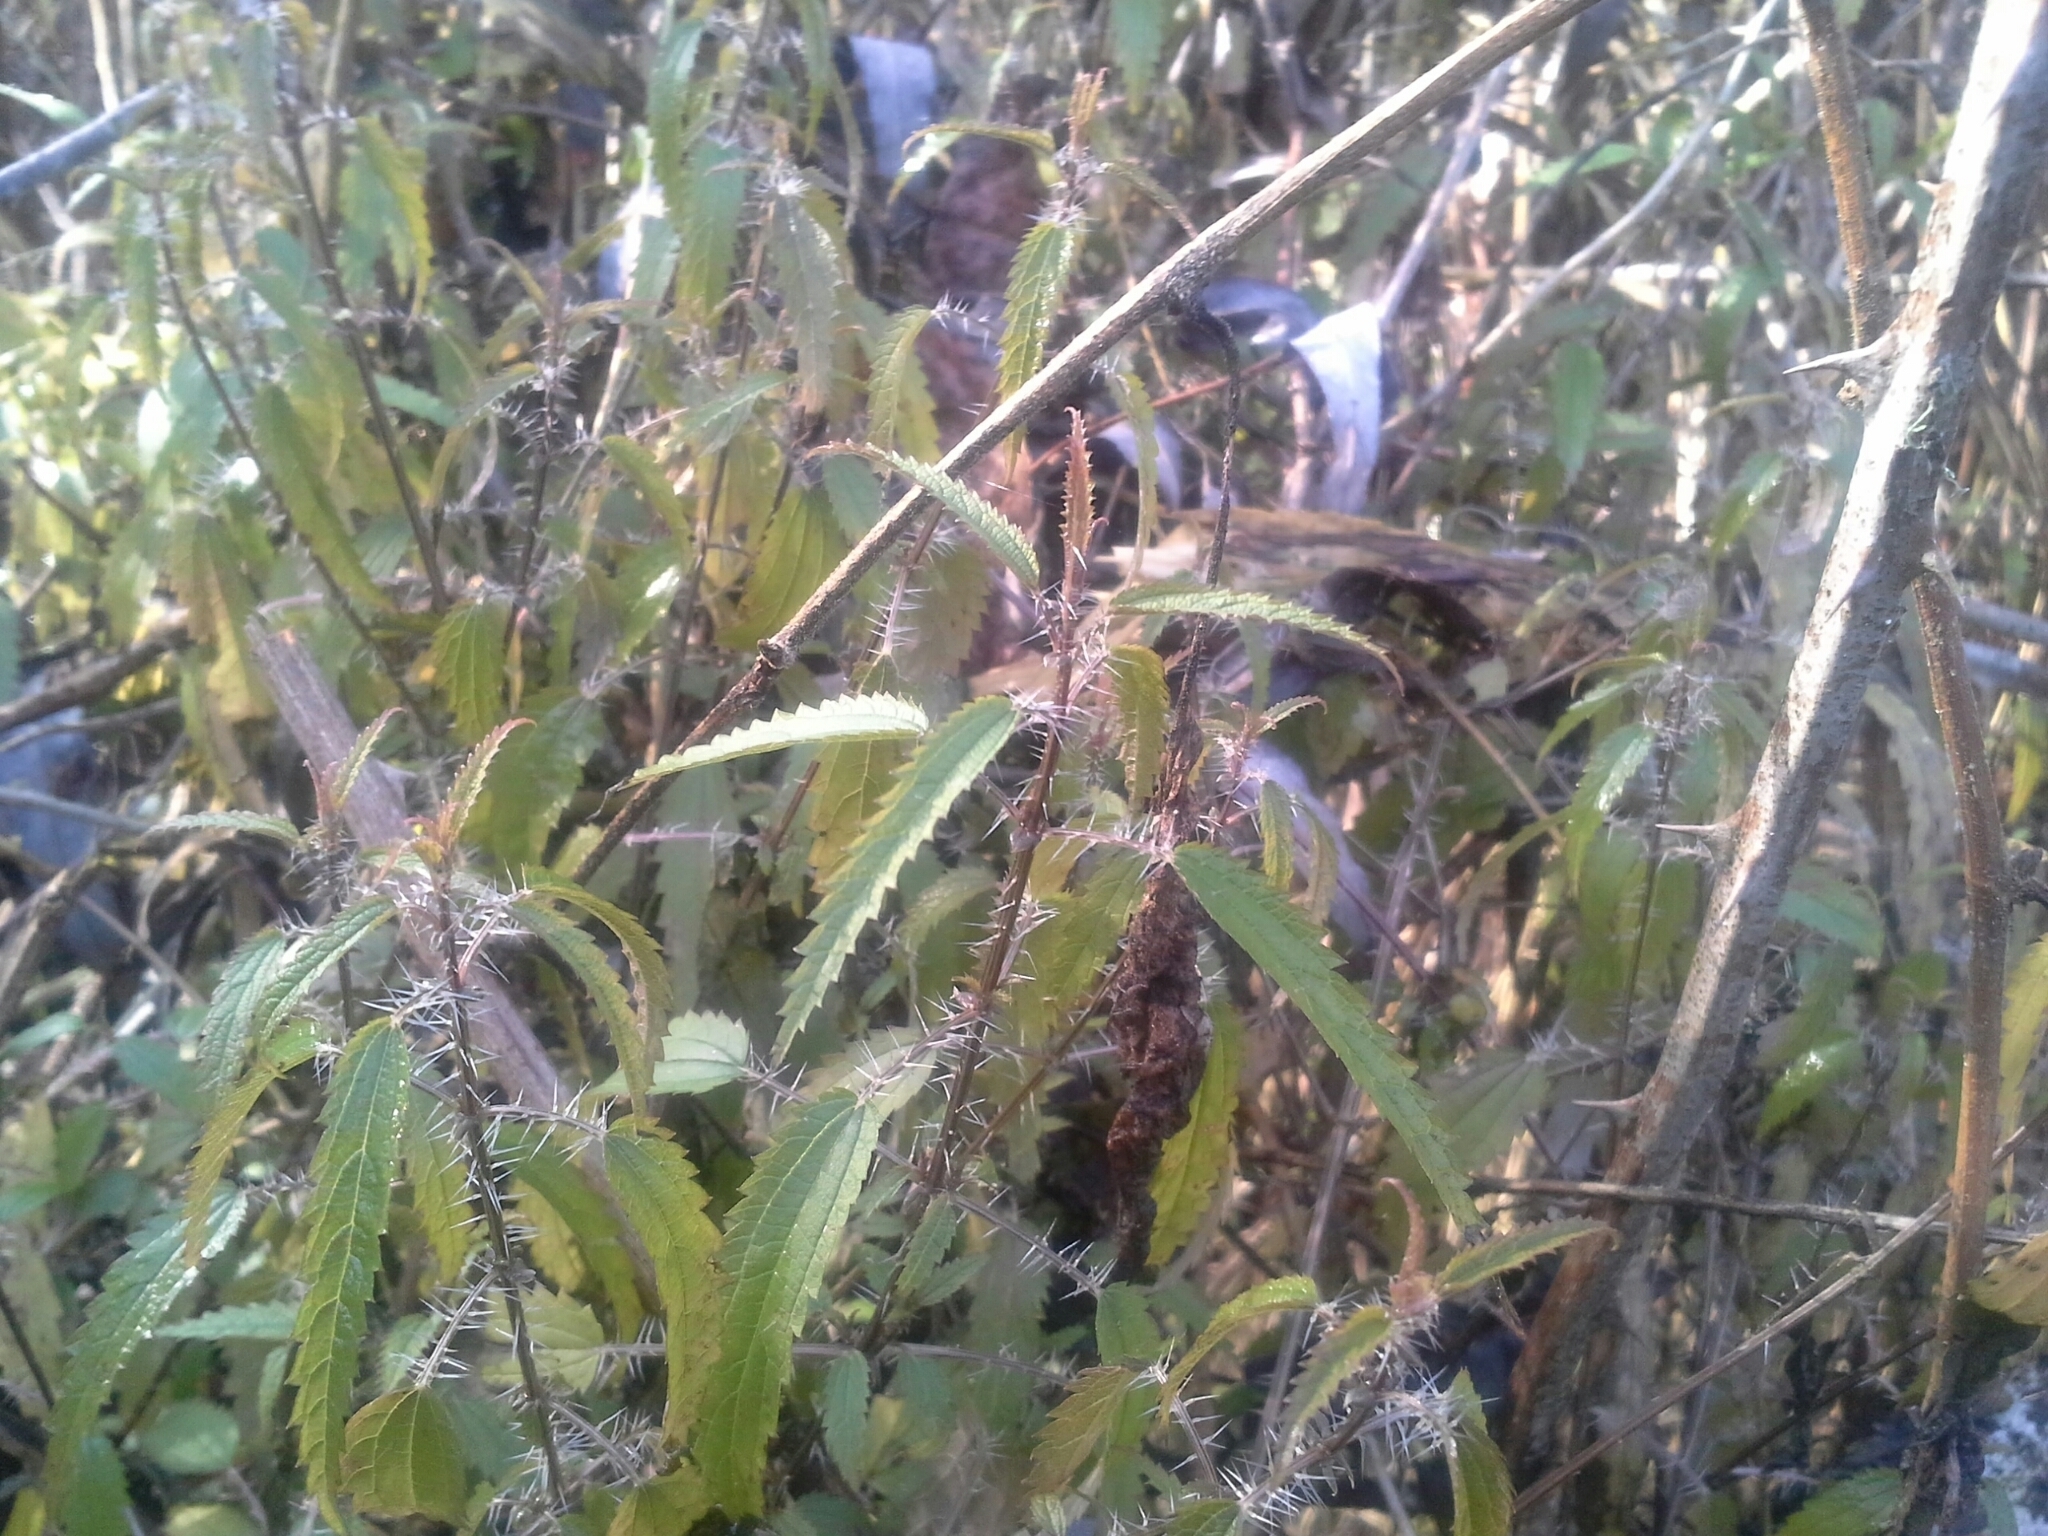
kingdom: Plantae
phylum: Tracheophyta
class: Magnoliopsida
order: Rosales
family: Urticaceae
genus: Urtica
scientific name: Urtica perconfusa
